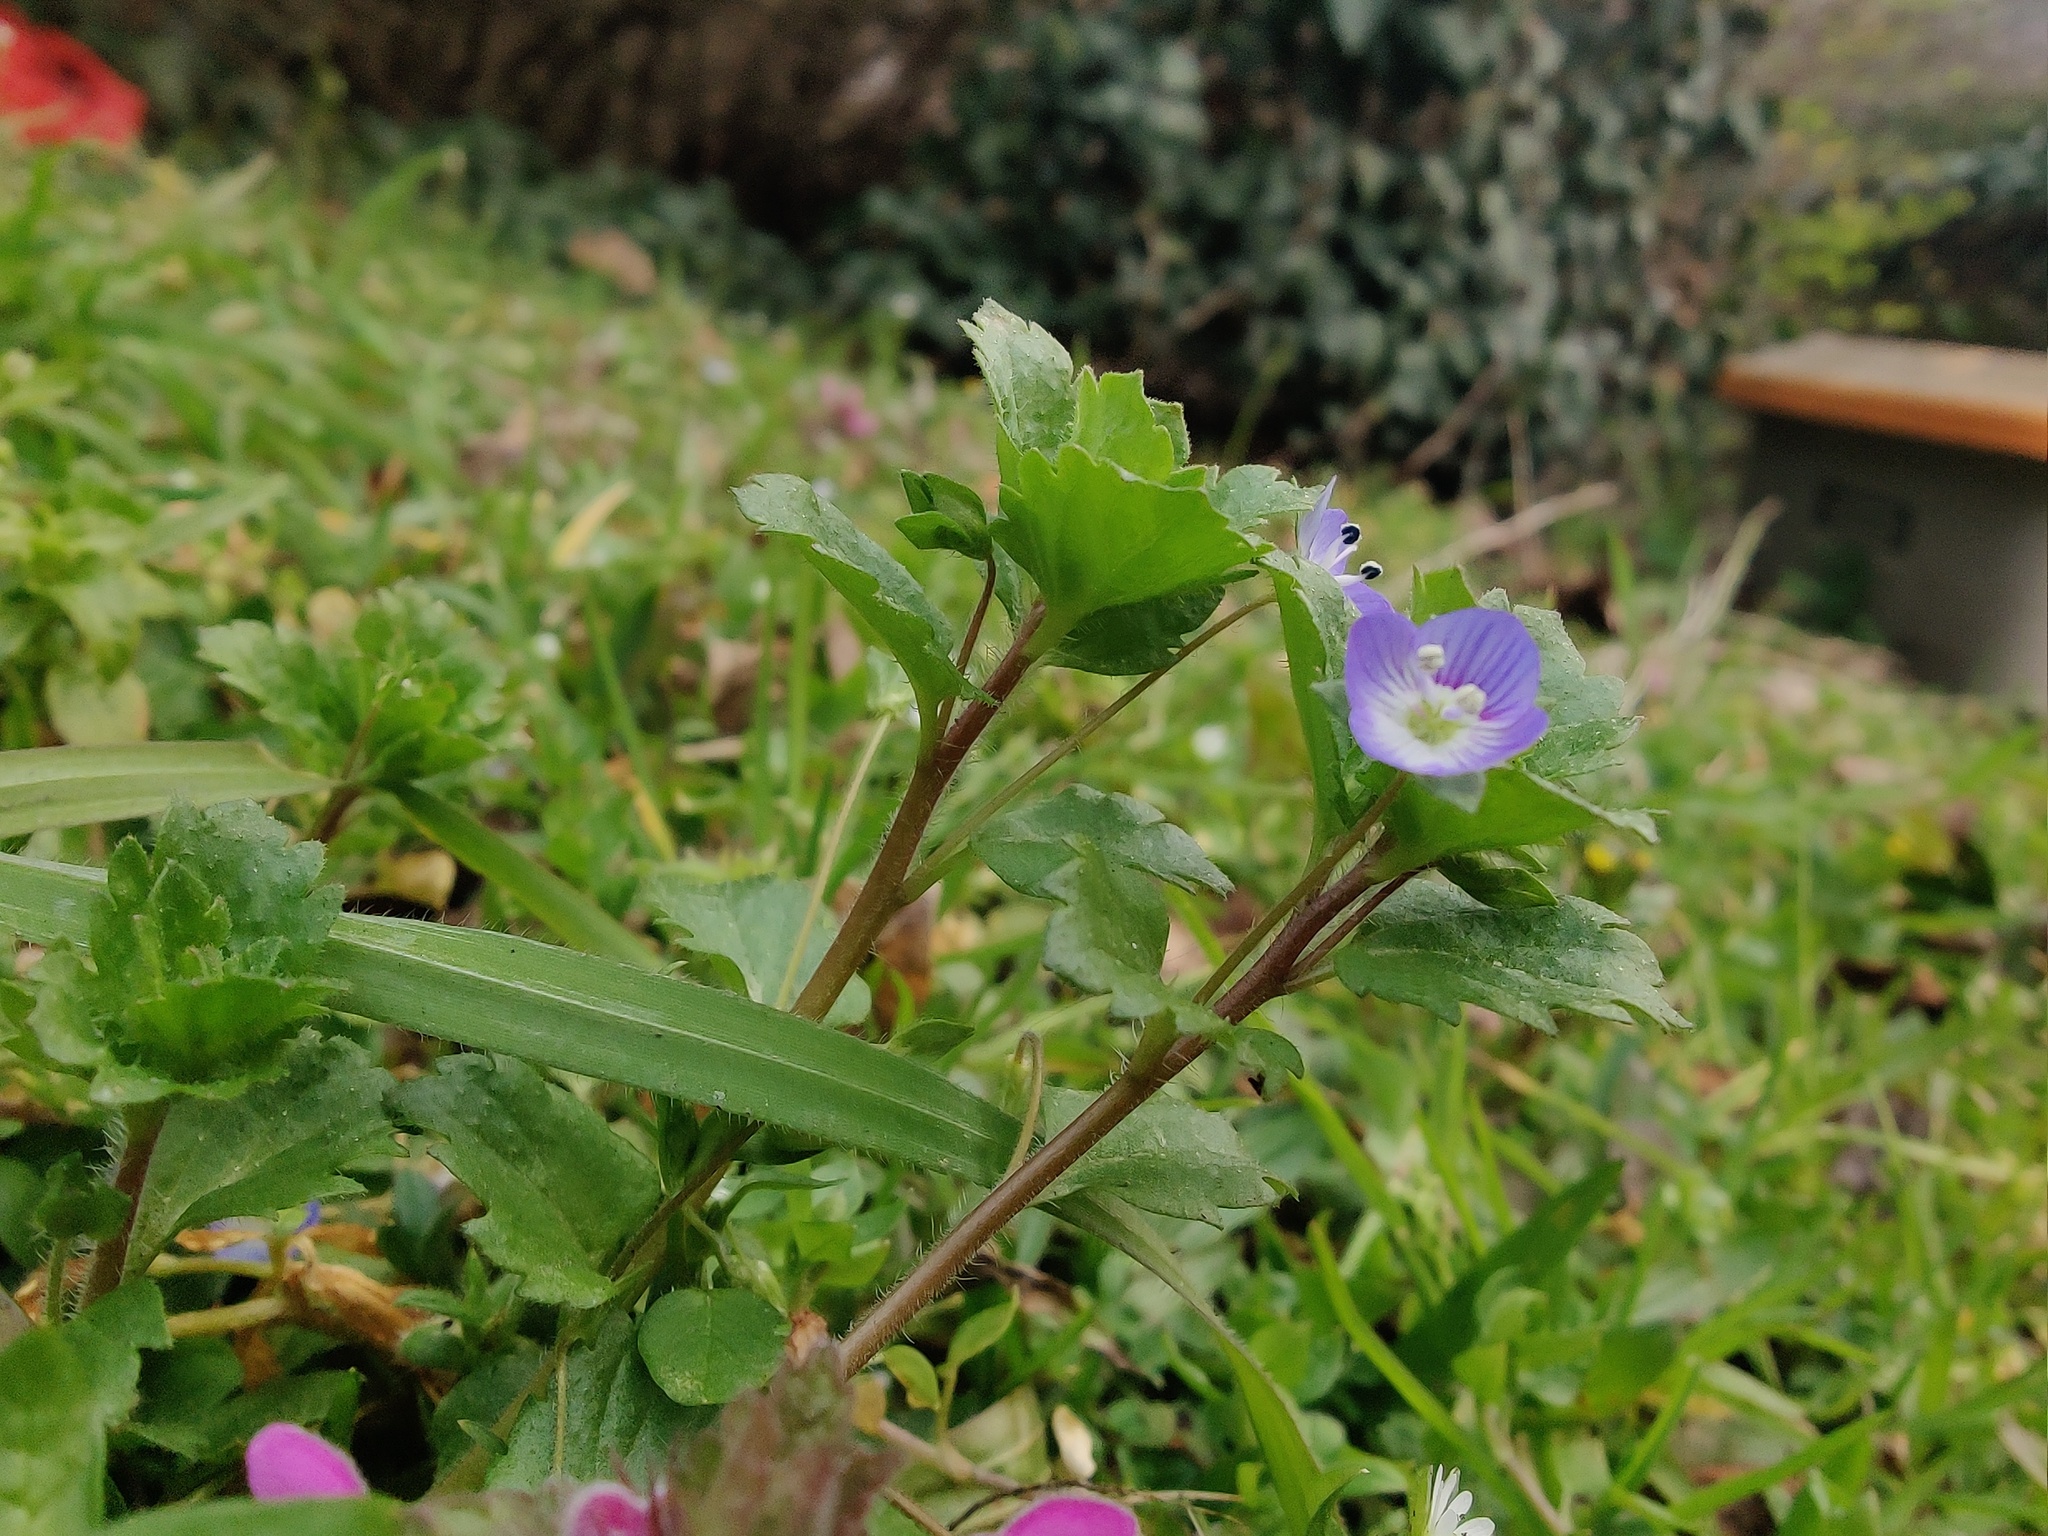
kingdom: Plantae
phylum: Tracheophyta
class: Magnoliopsida
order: Lamiales
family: Plantaginaceae
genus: Veronica
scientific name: Veronica persica
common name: Common field-speedwell
